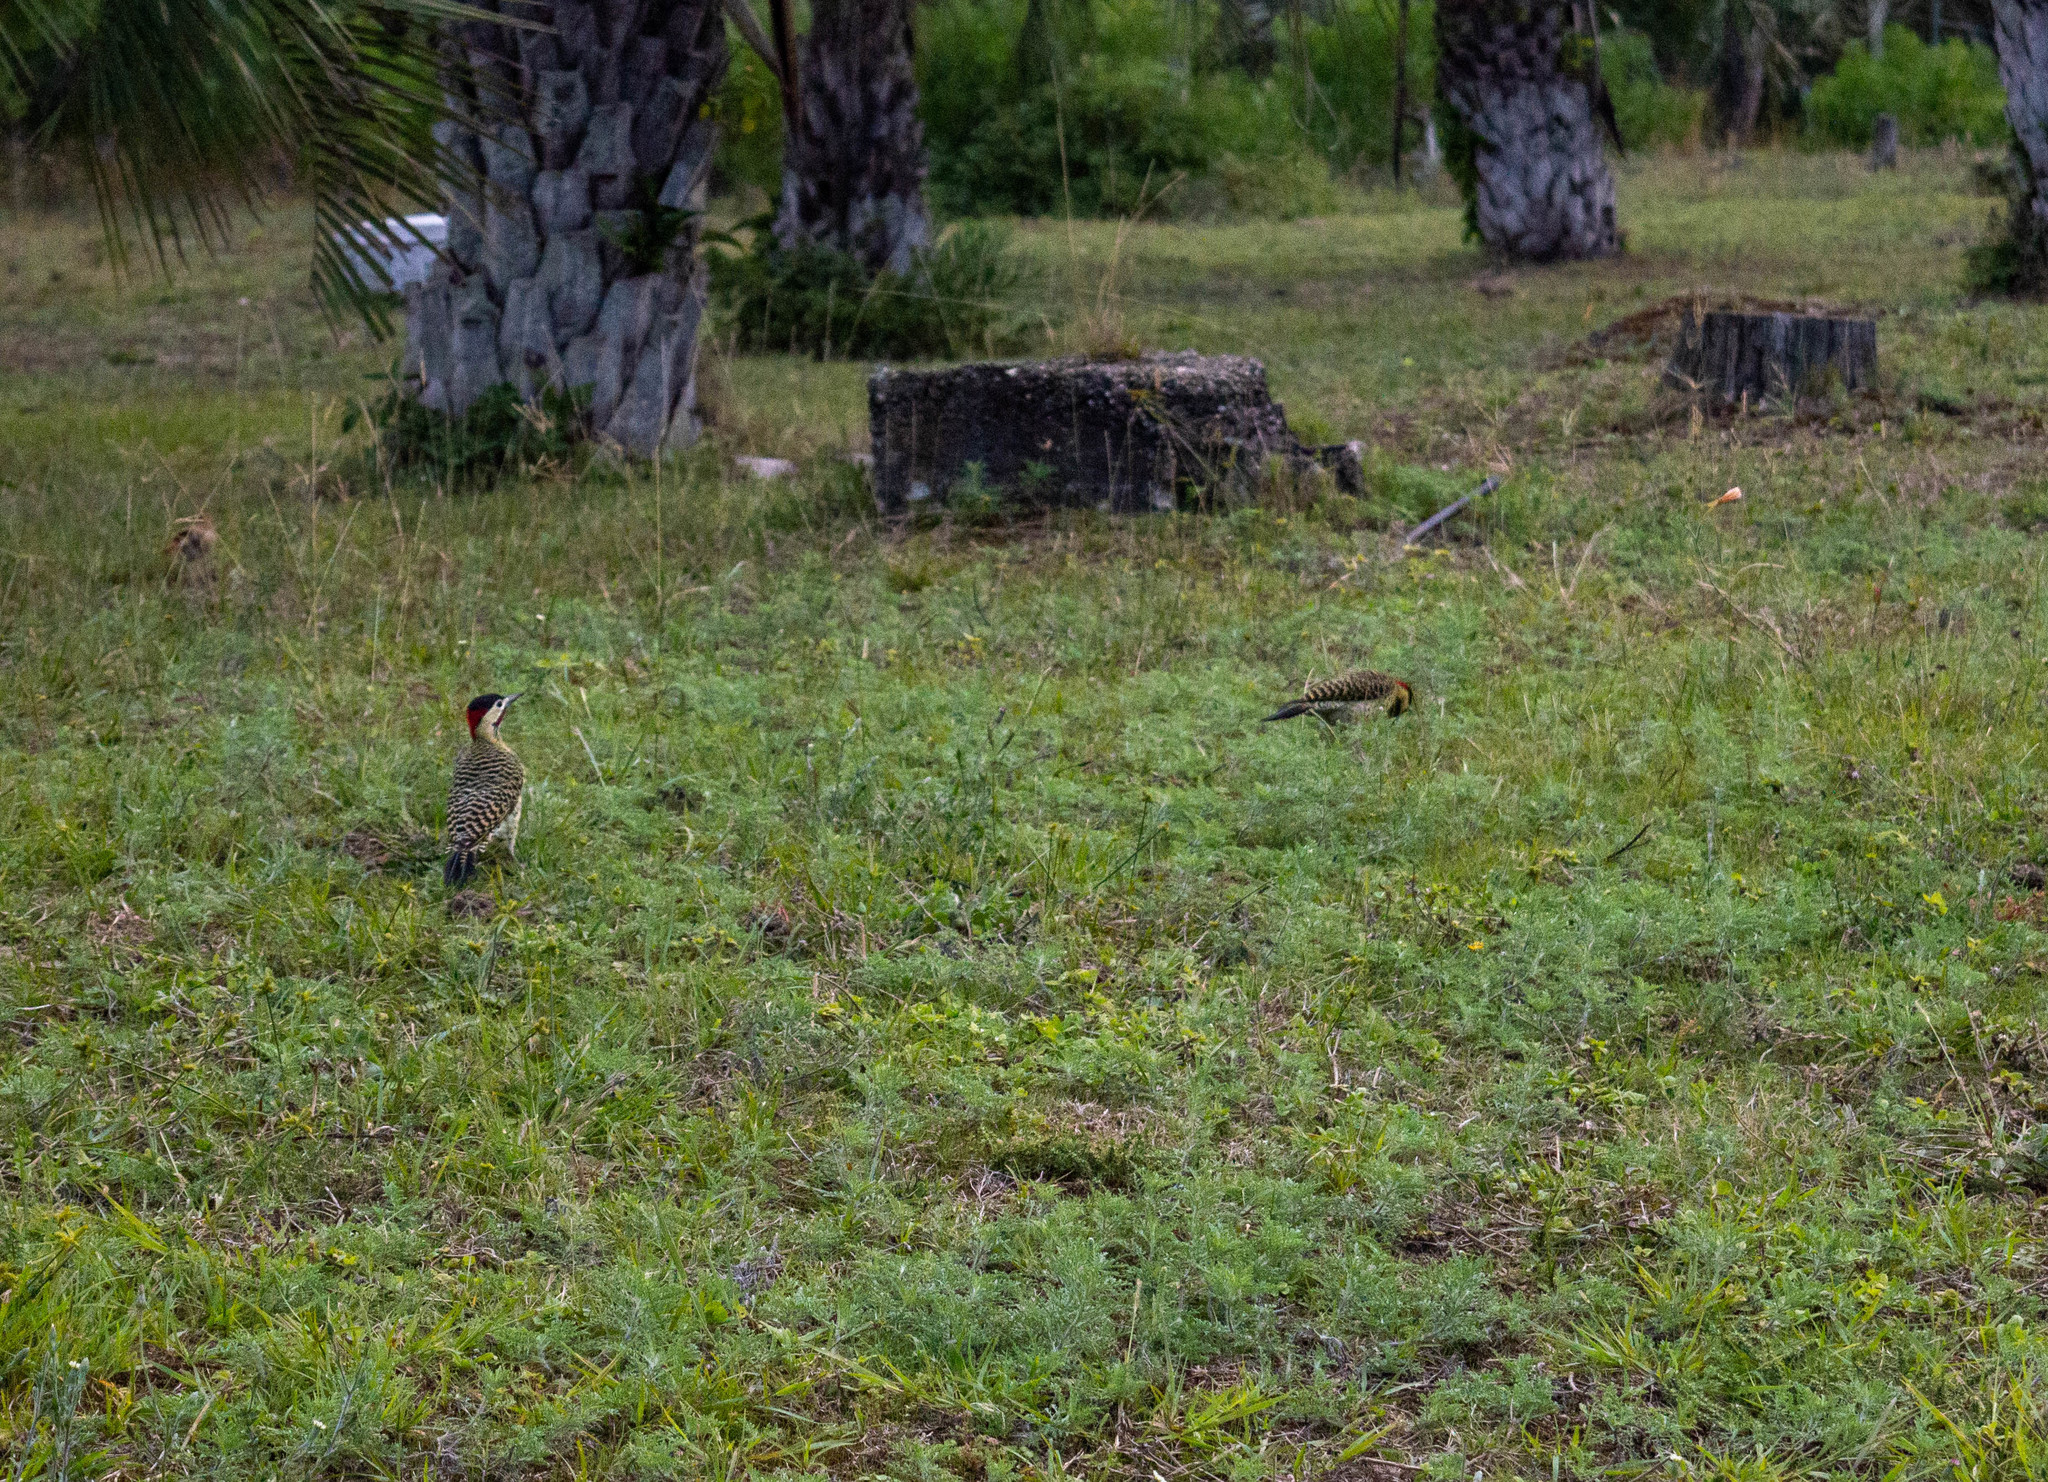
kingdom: Animalia
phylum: Chordata
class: Aves
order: Piciformes
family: Picidae
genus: Colaptes
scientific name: Colaptes melanochloros
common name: Green-barred woodpecker
